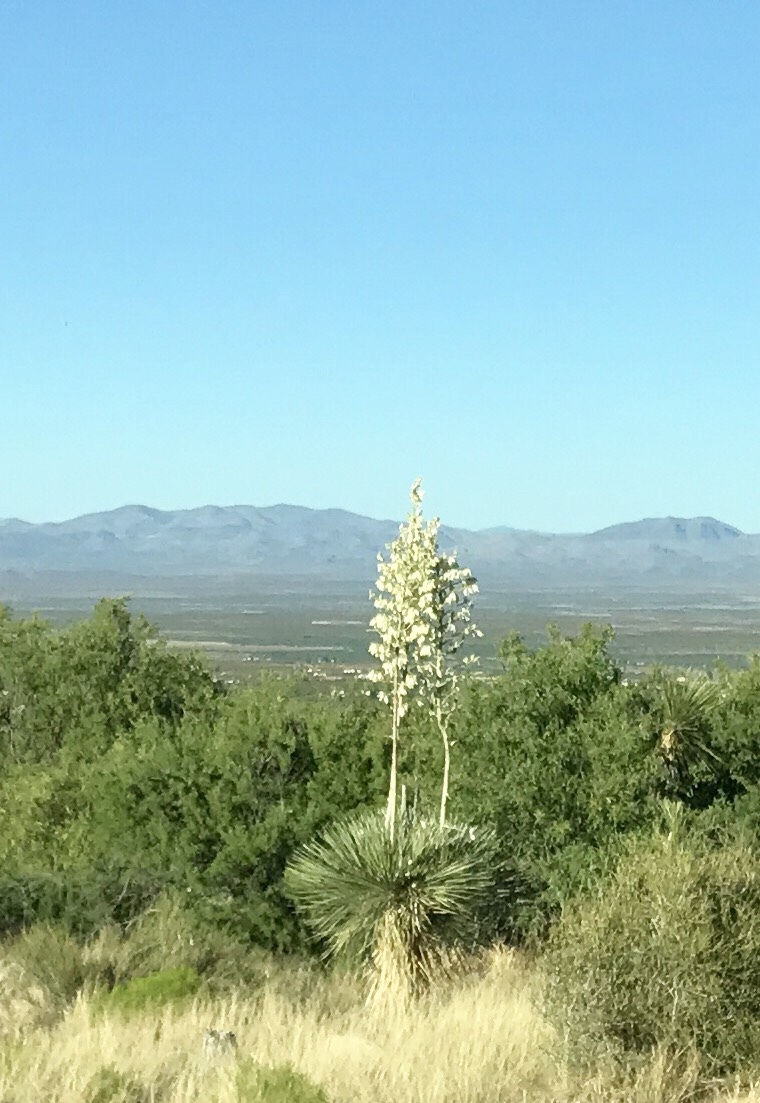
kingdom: Plantae
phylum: Tracheophyta
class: Liliopsida
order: Asparagales
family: Asparagaceae
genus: Yucca
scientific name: Yucca elata
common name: Palmella
